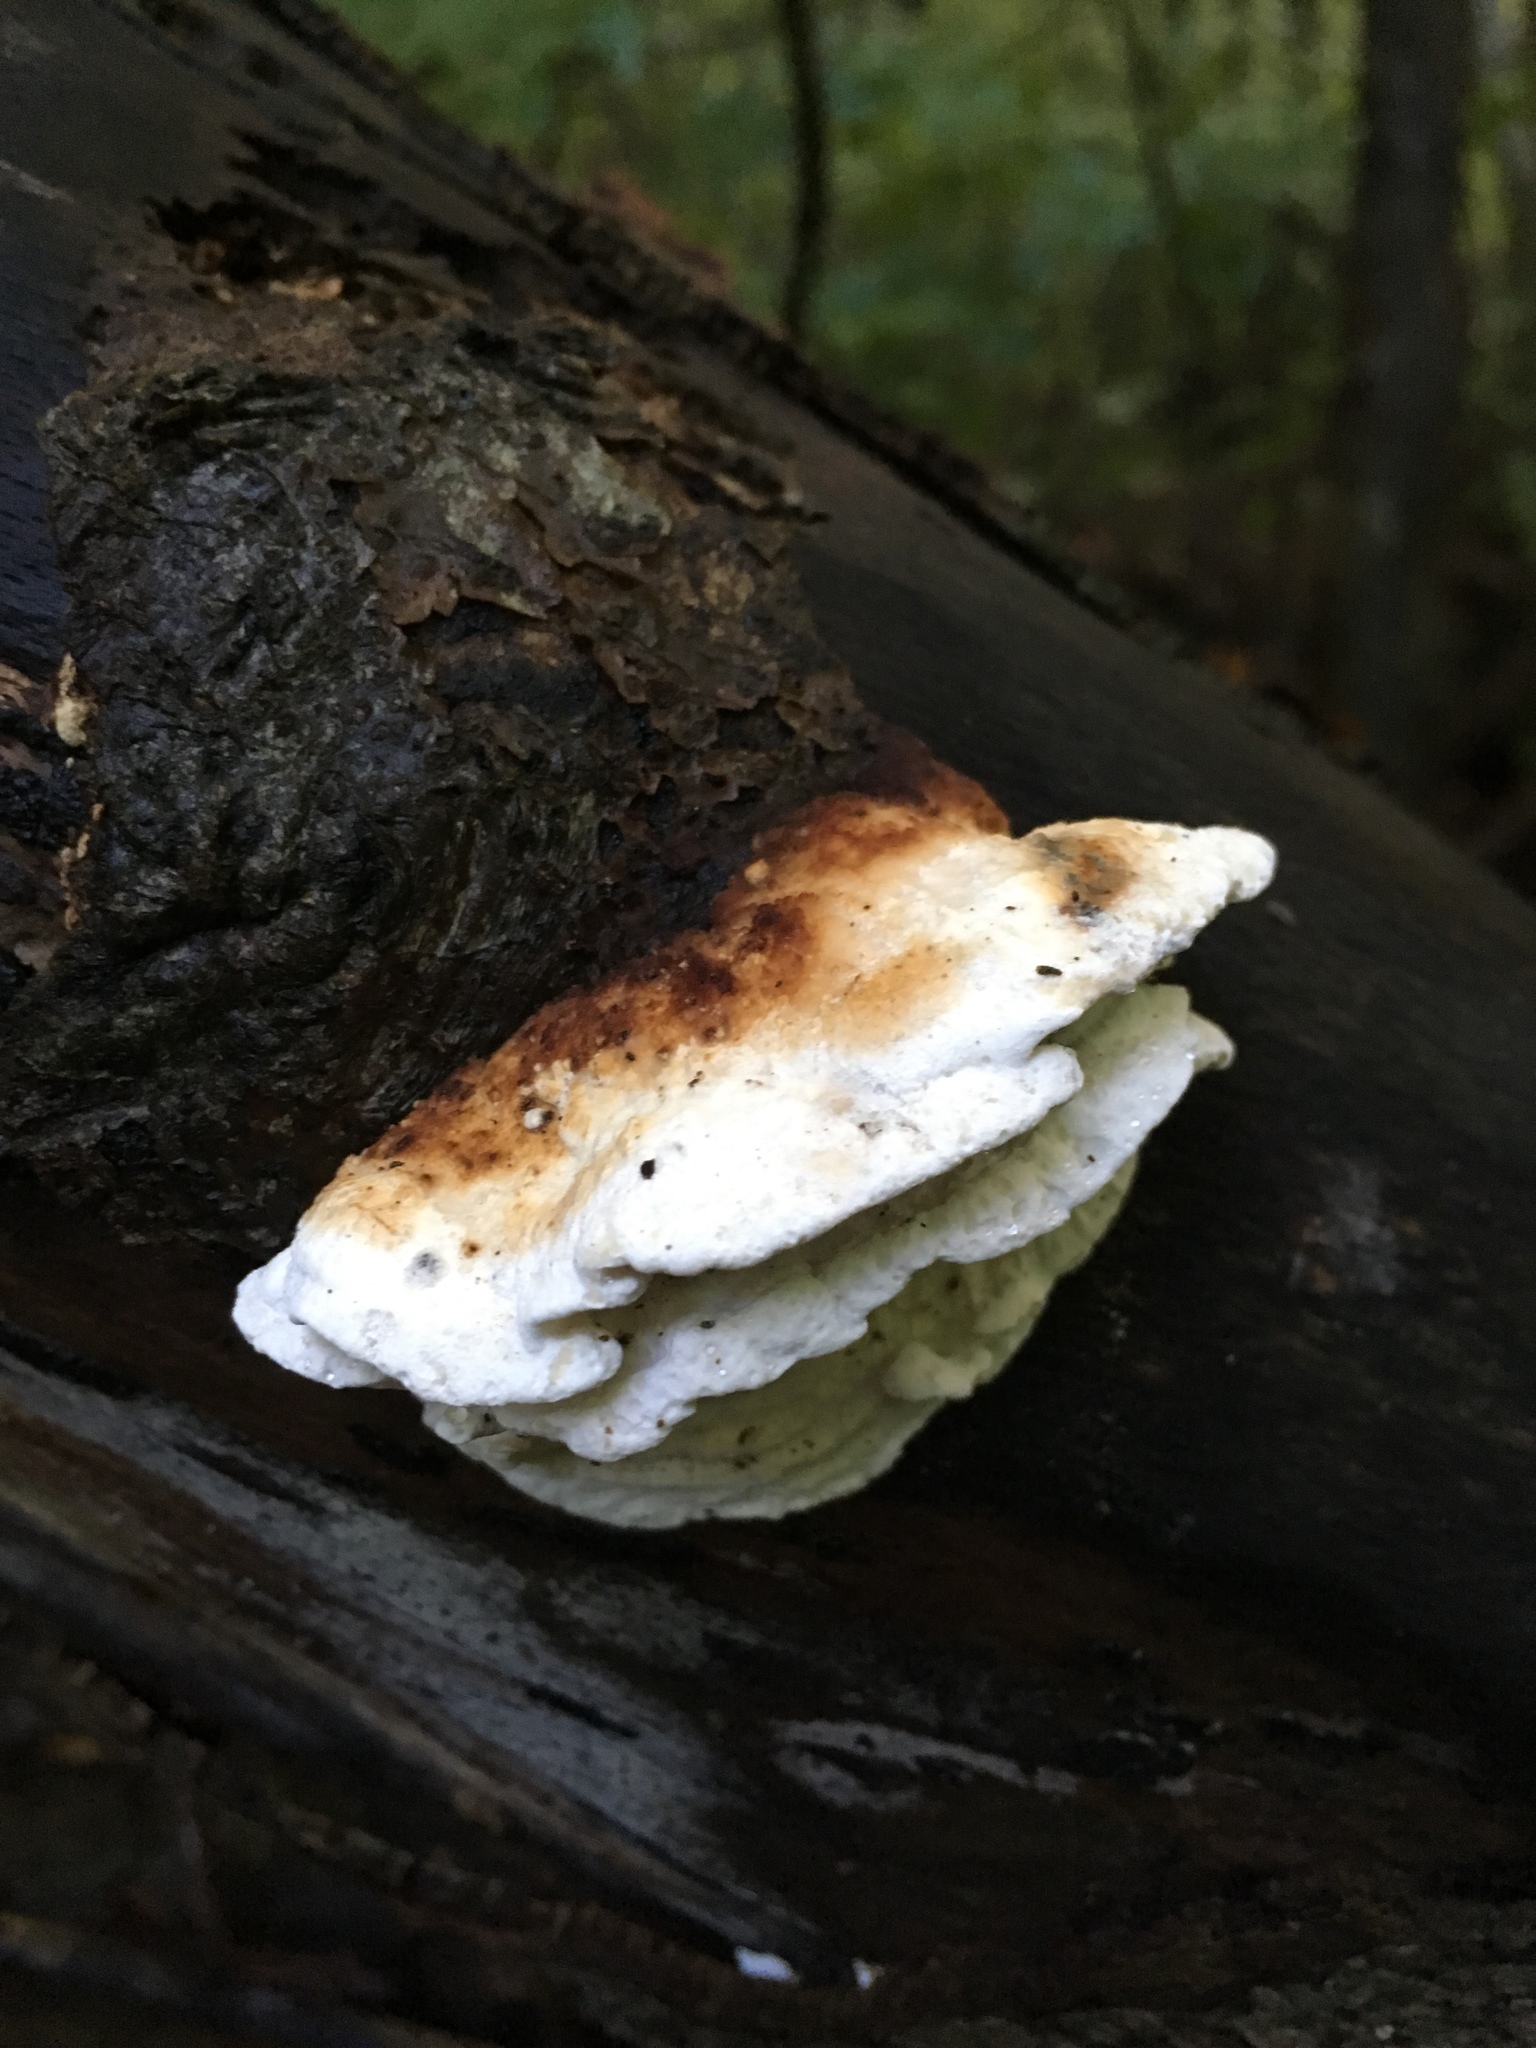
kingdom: Fungi
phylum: Basidiomycota
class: Agaricomycetes
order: Polyporales
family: Incrustoporiaceae
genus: Skeletocutis
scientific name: Skeletocutis nivea
